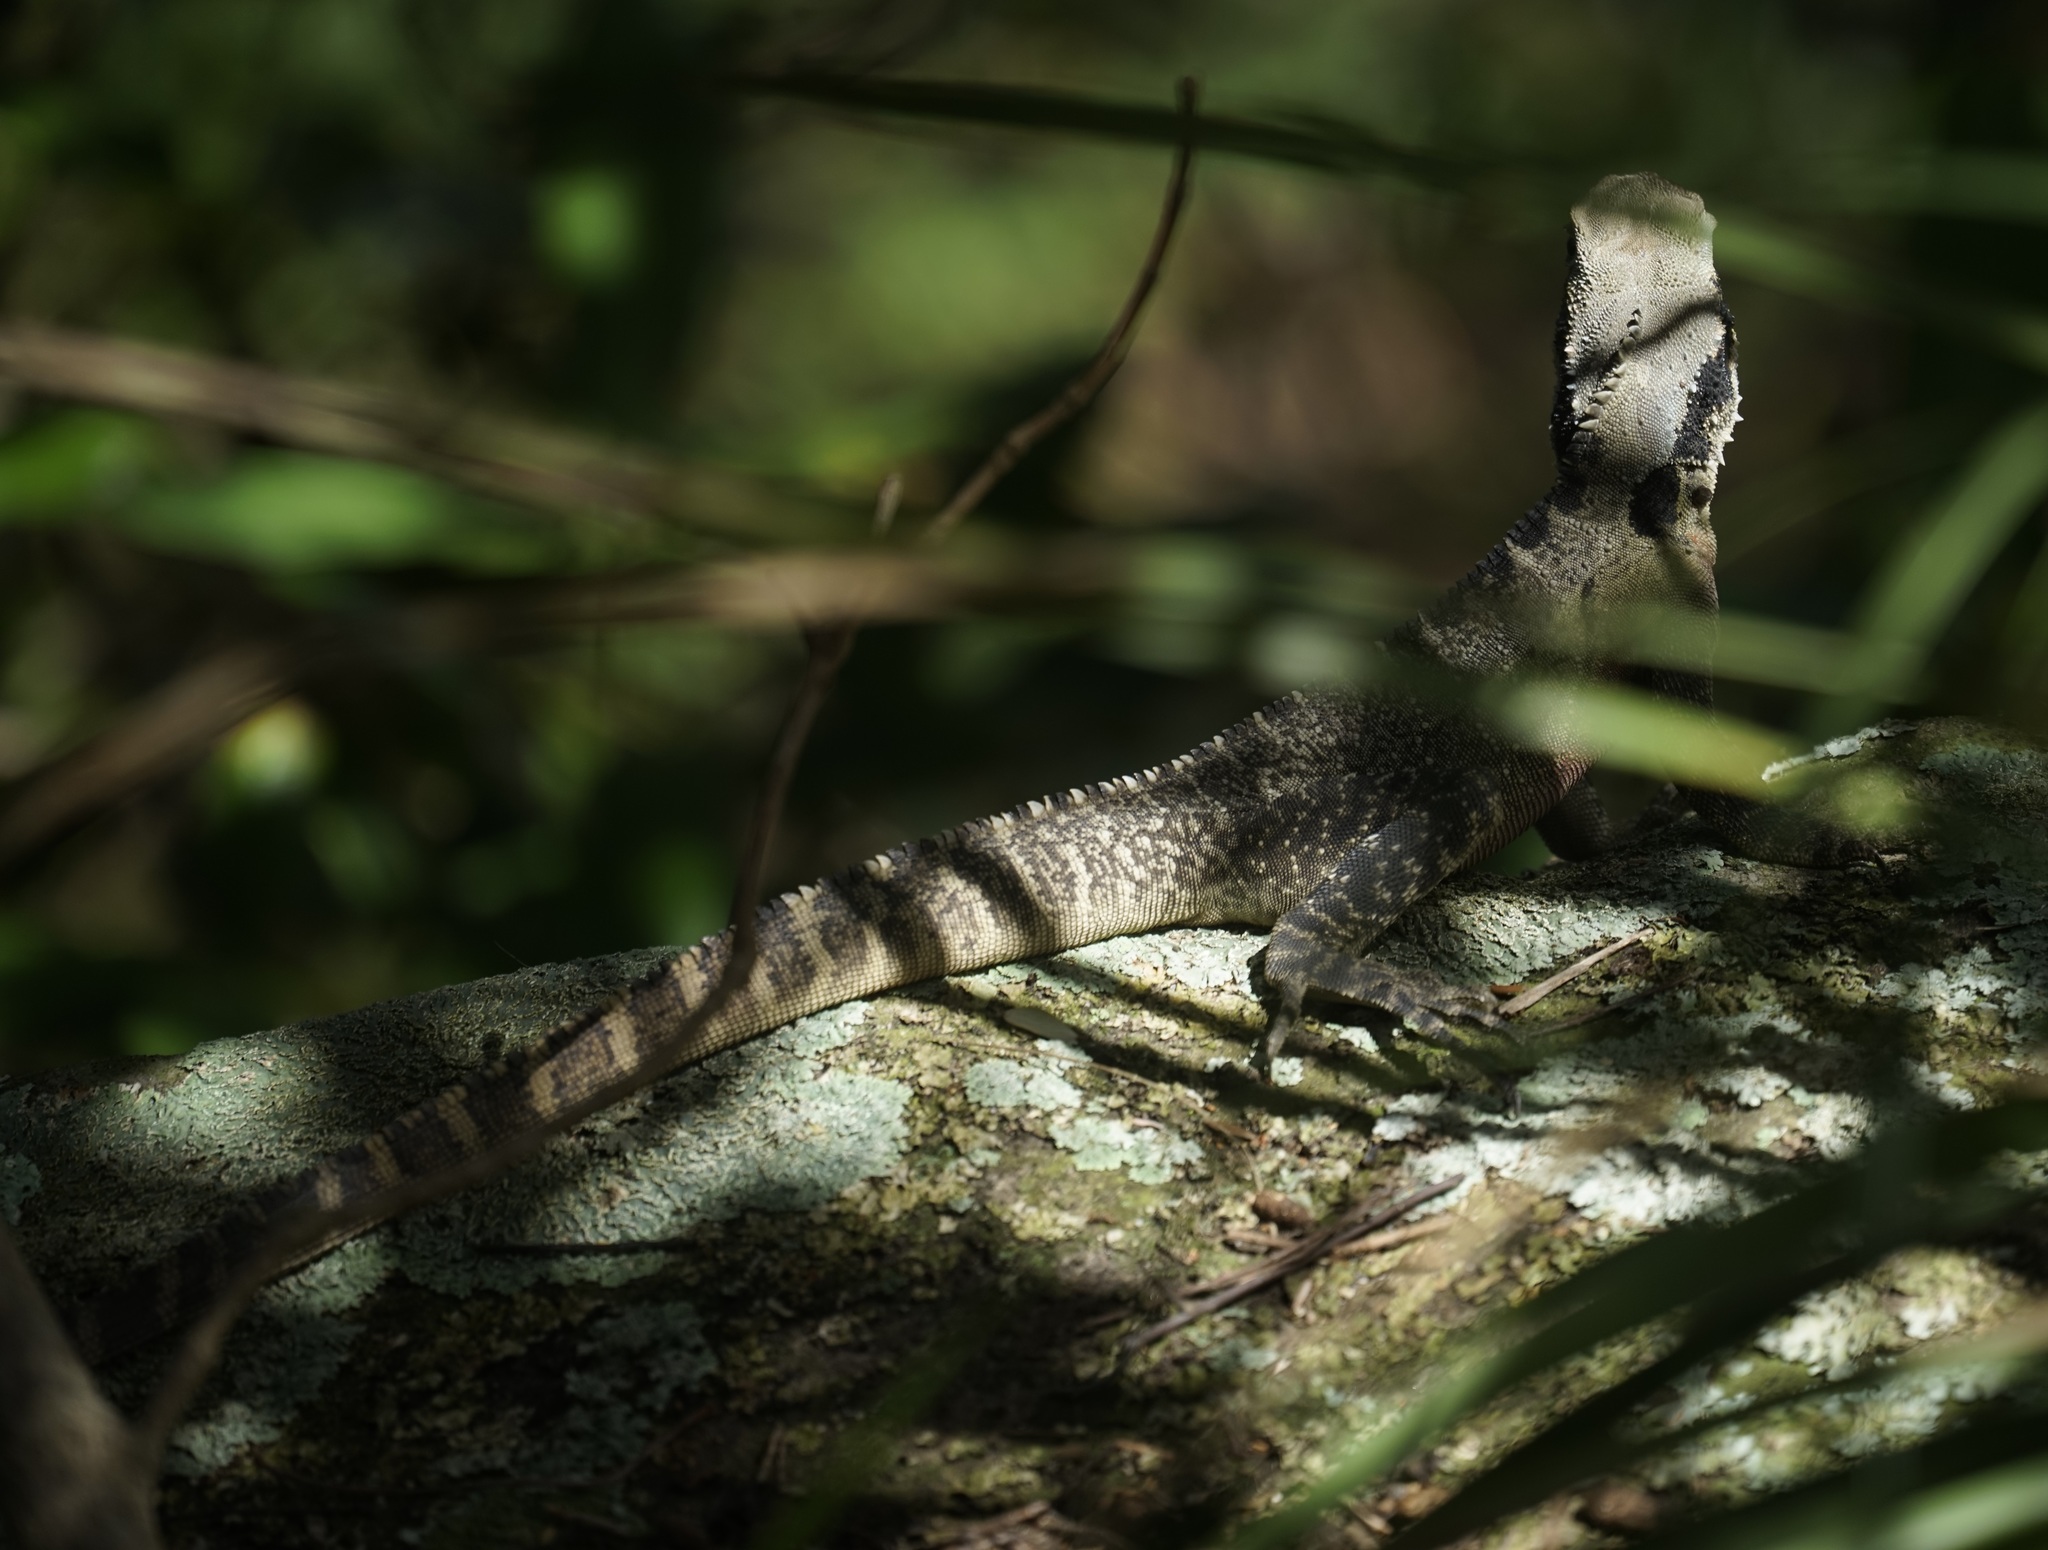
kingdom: Animalia
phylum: Chordata
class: Squamata
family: Agamidae
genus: Intellagama
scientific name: Intellagama lesueurii
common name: Eastern water dragon
